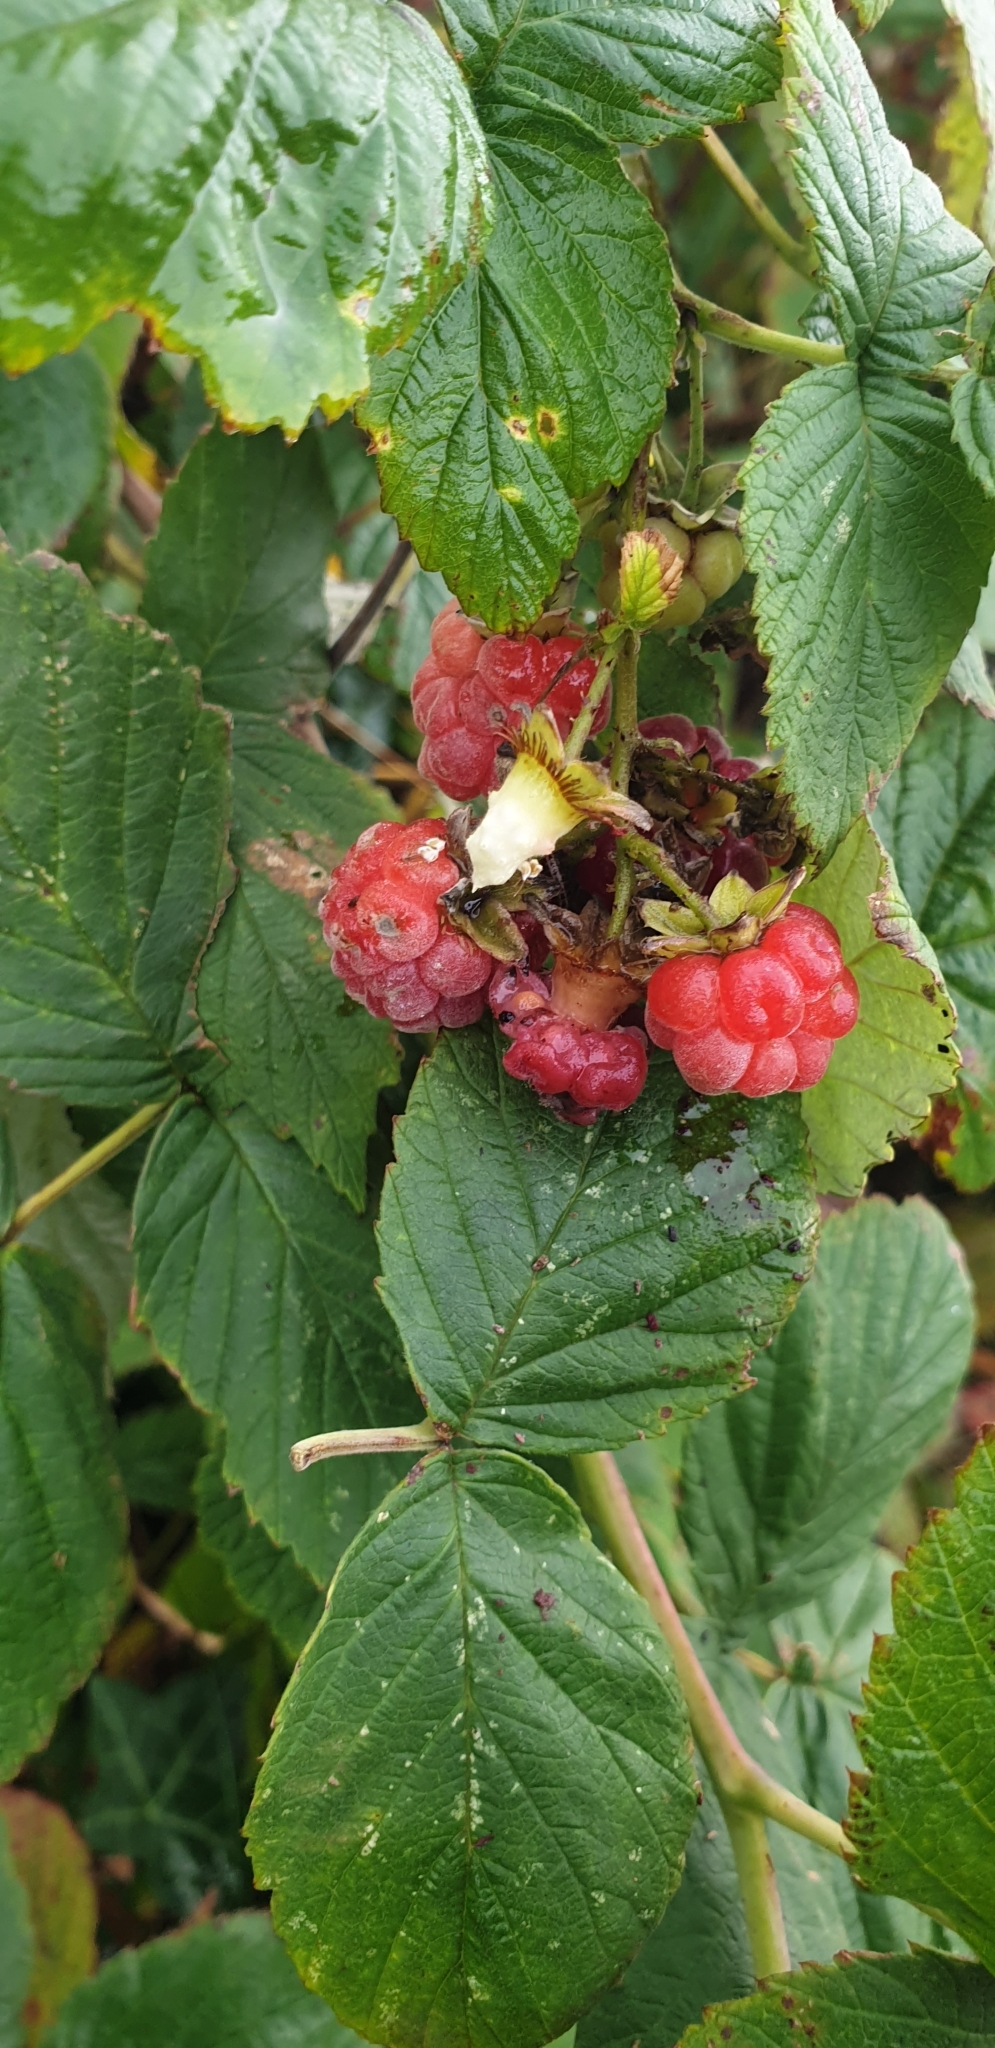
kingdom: Plantae
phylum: Tracheophyta
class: Magnoliopsida
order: Rosales
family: Rosaceae
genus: Rubus
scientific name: Rubus idaeus
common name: Raspberry
